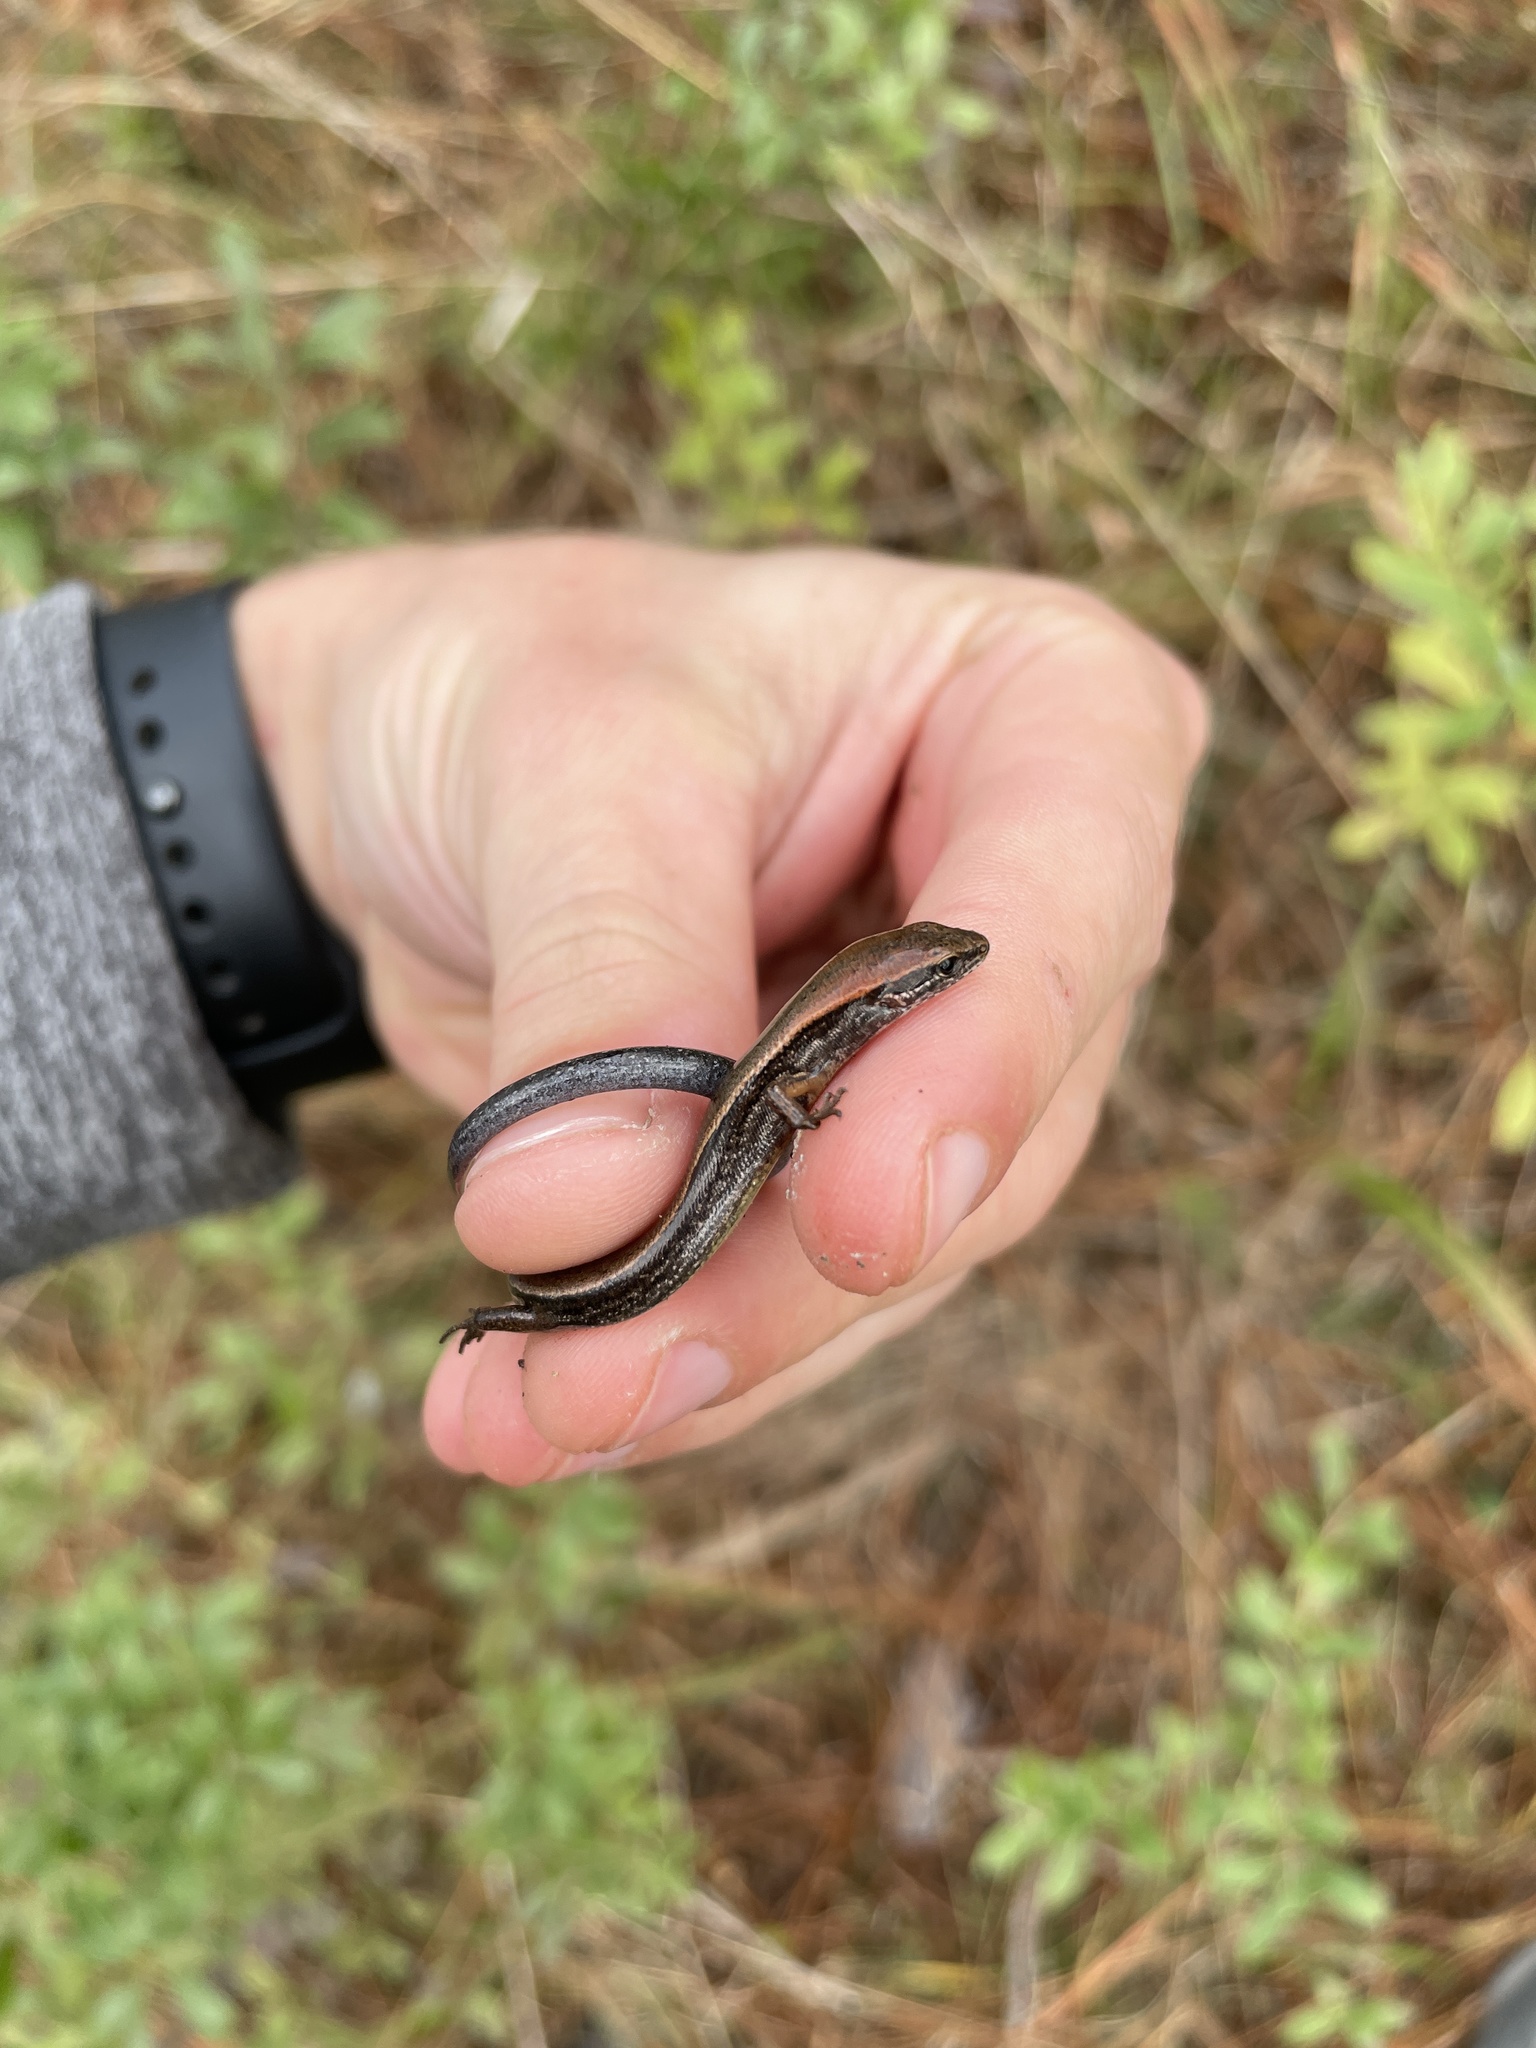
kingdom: Animalia
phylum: Chordata
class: Squamata
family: Scincidae
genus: Scincella
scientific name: Scincella lateralis
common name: Ground skink
